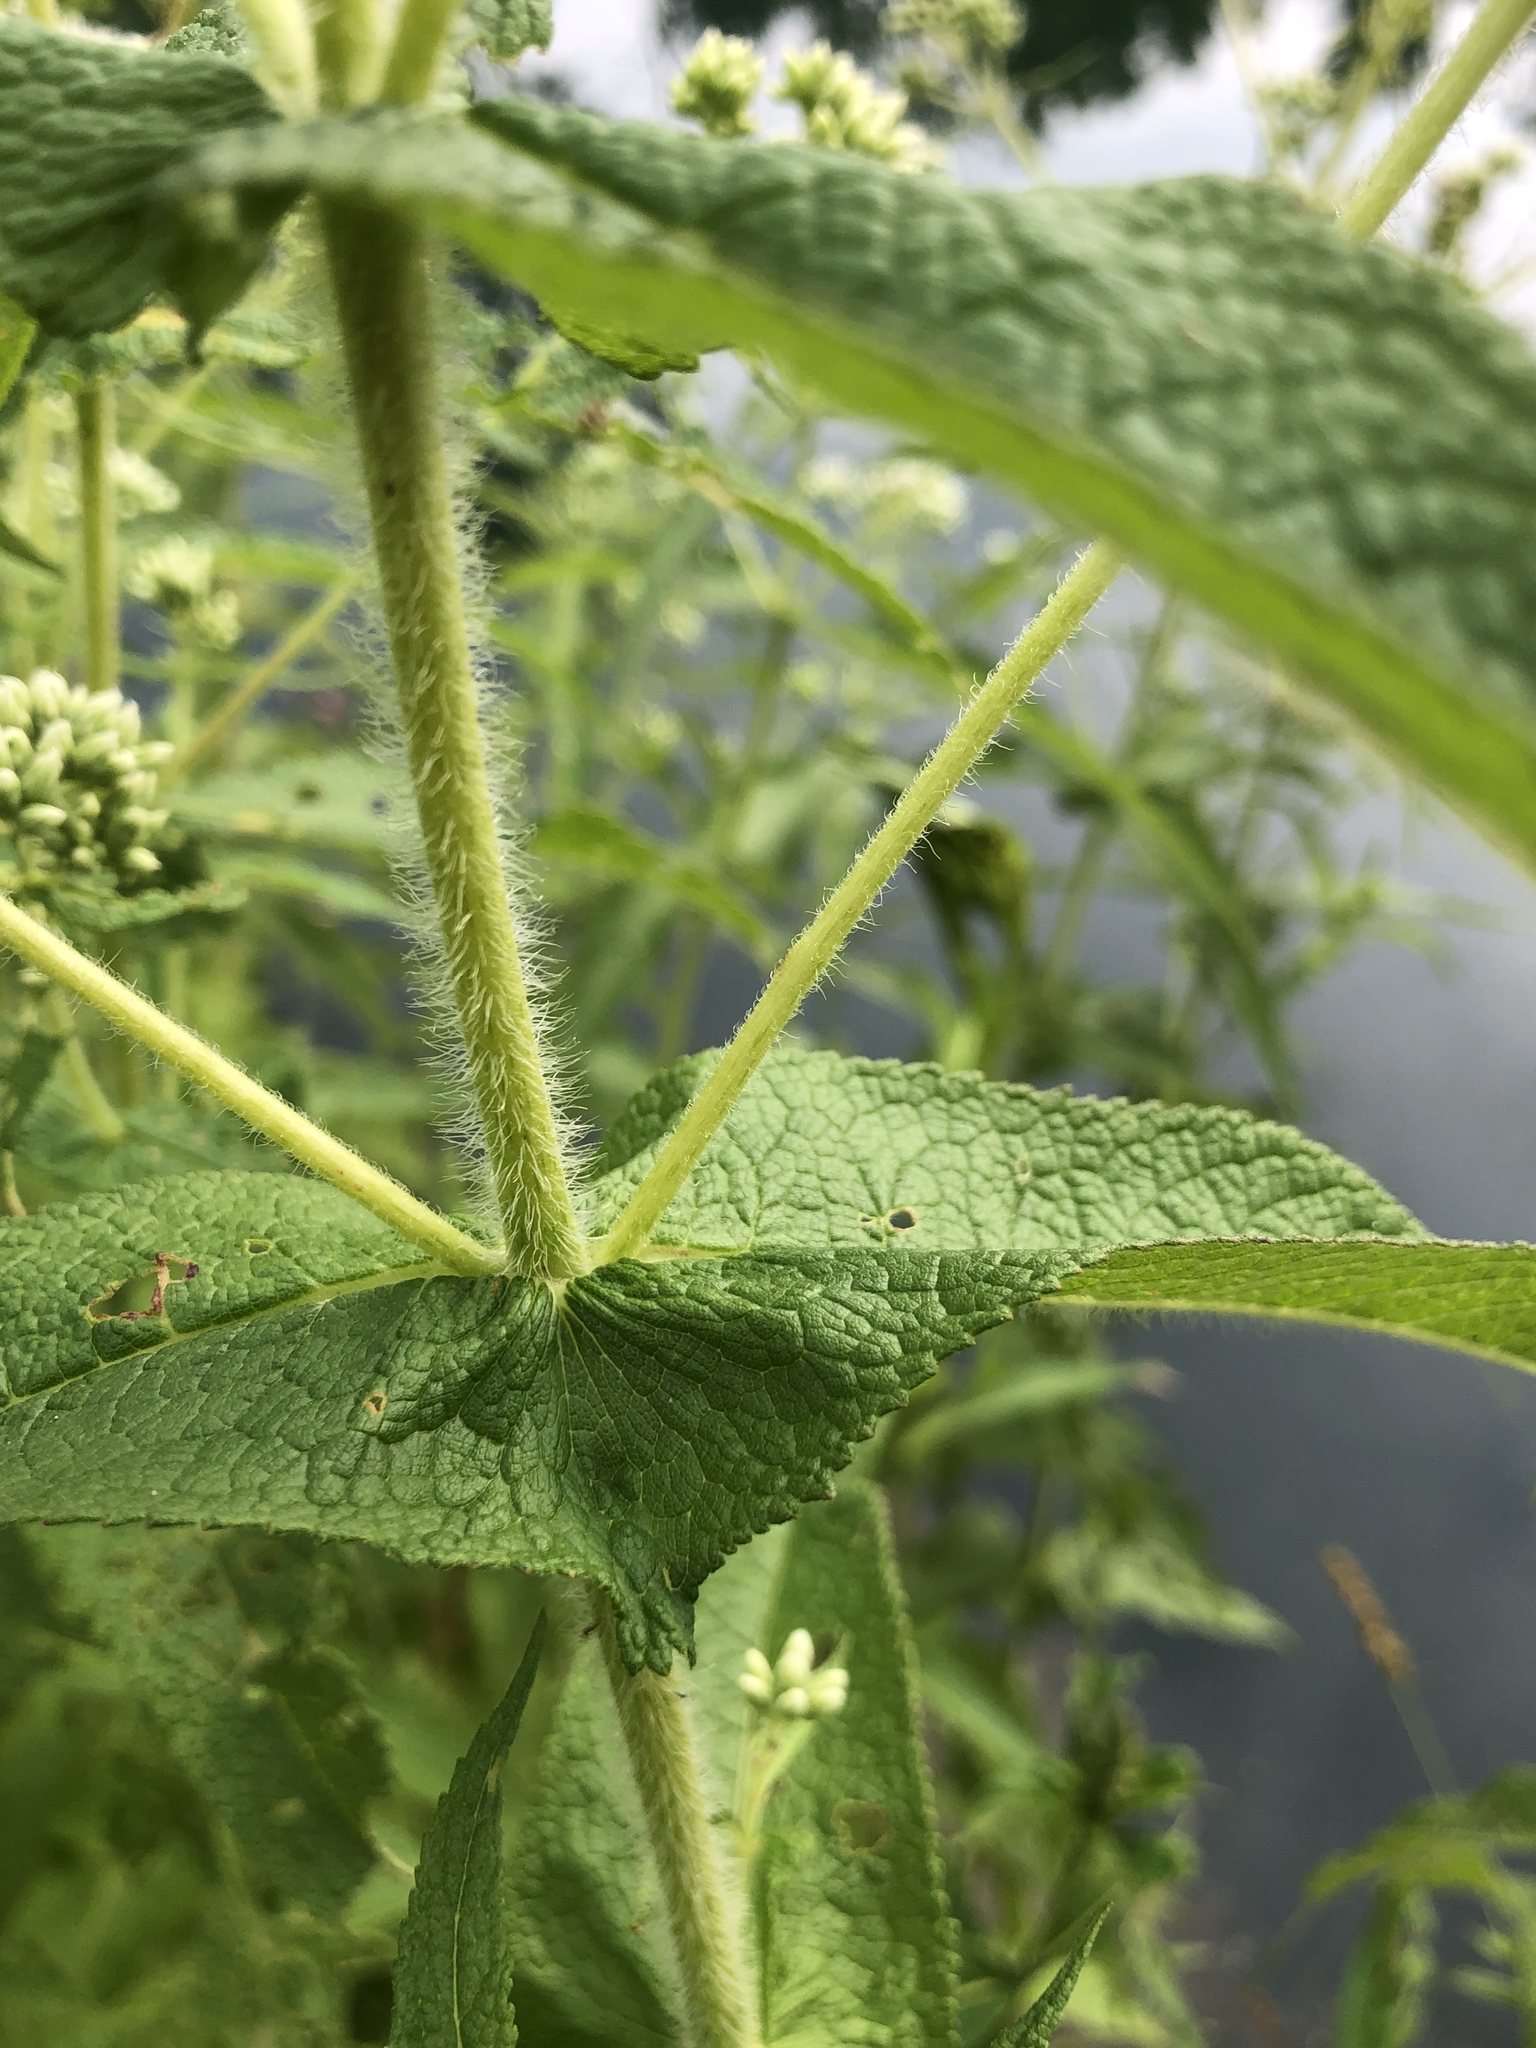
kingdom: Plantae
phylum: Tracheophyta
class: Magnoliopsida
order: Asterales
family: Asteraceae
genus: Eupatorium
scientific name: Eupatorium perfoliatum
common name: Boneset
